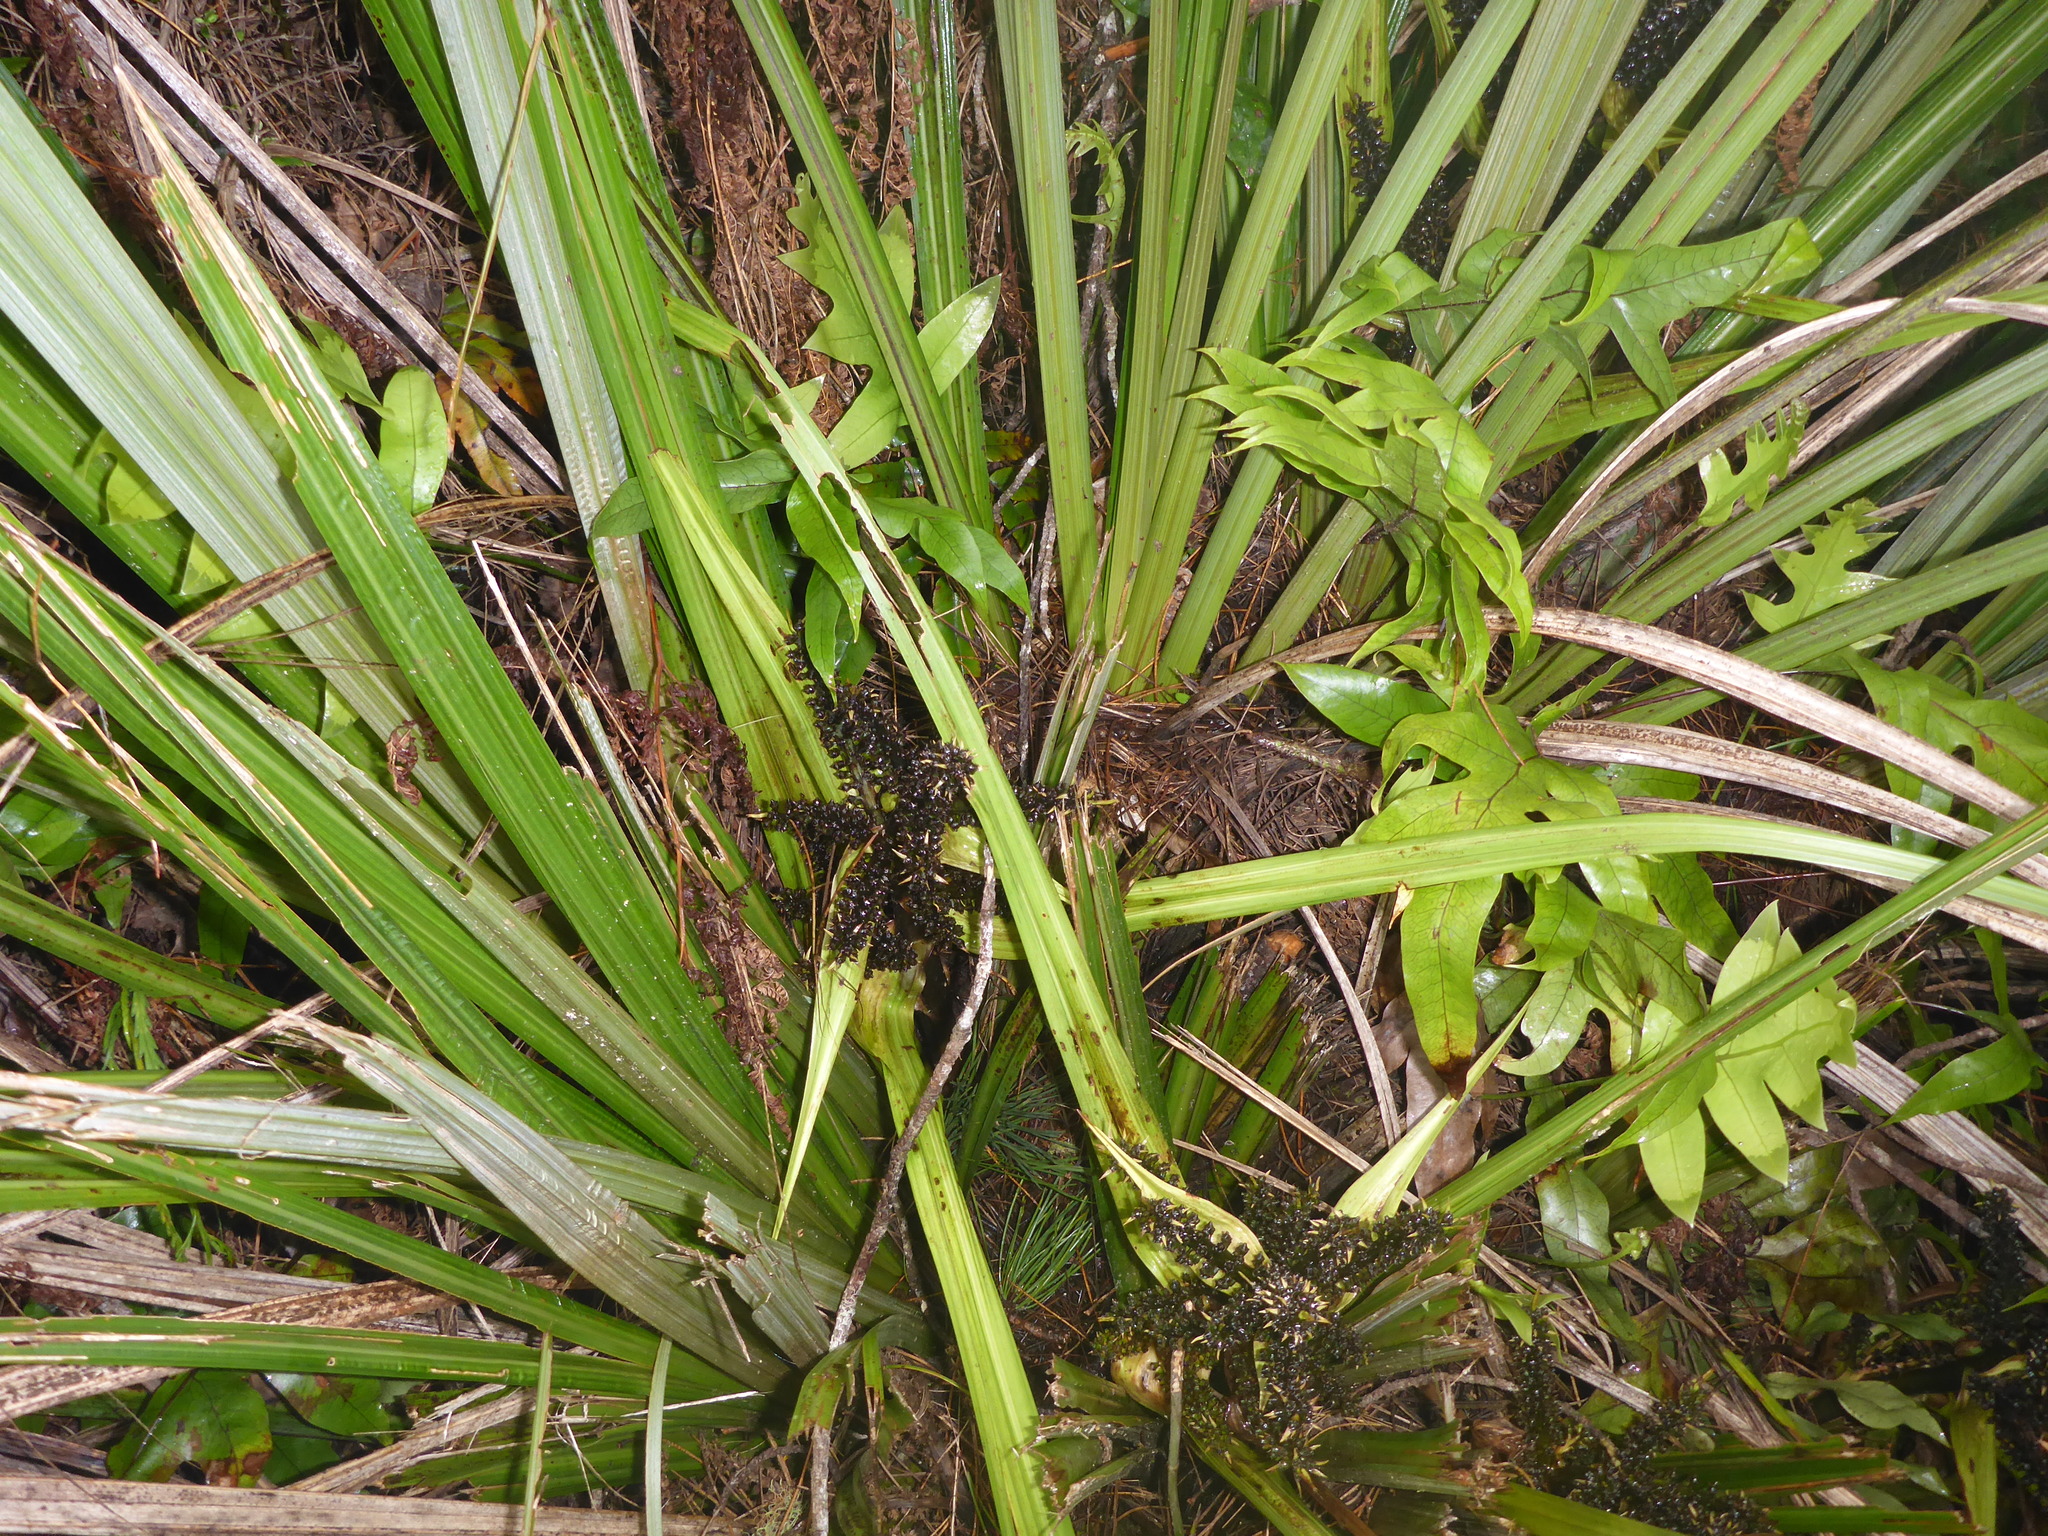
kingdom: Plantae
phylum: Tracheophyta
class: Liliopsida
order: Asparagales
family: Asteliaceae
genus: Astelia
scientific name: Astelia fragrans
